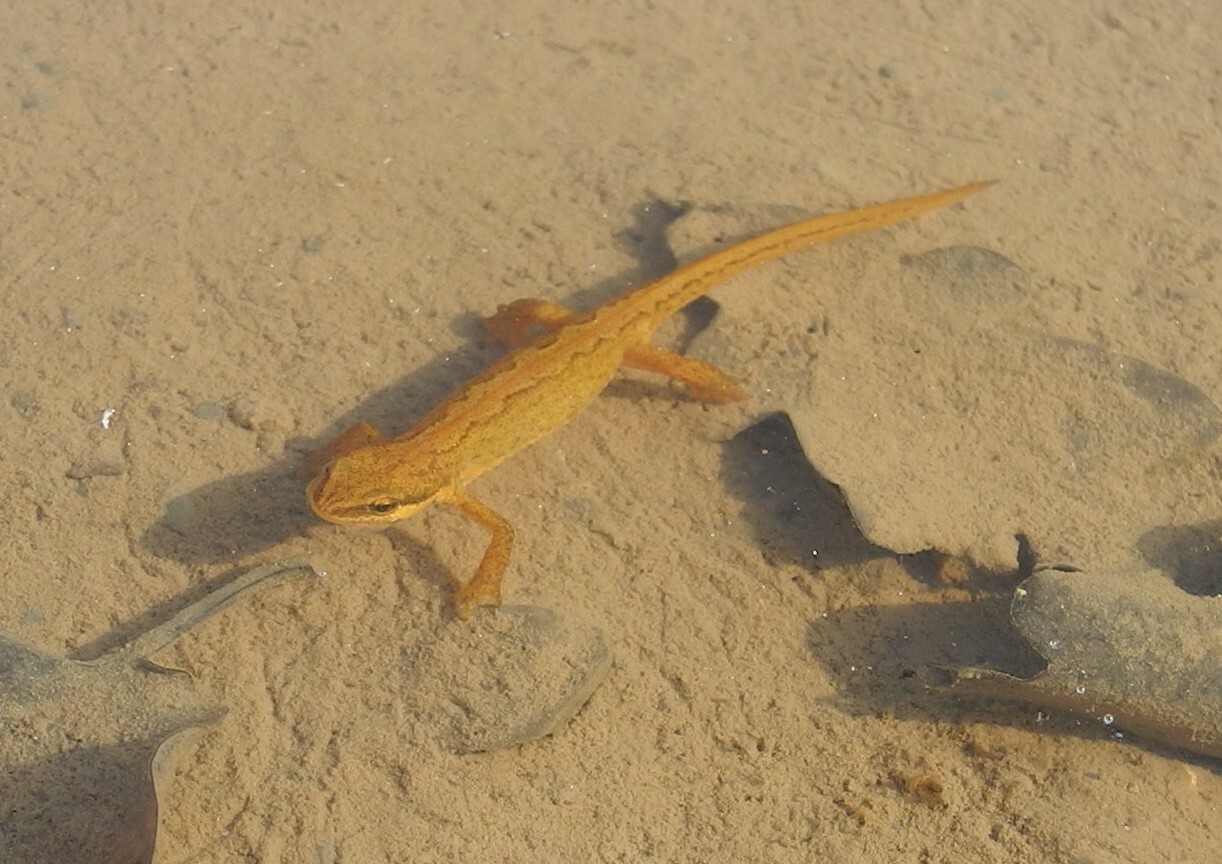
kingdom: Animalia
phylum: Chordata
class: Amphibia
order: Caudata
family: Salamandridae
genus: Lissotriton
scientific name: Lissotriton helveticus
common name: Palmate newt
